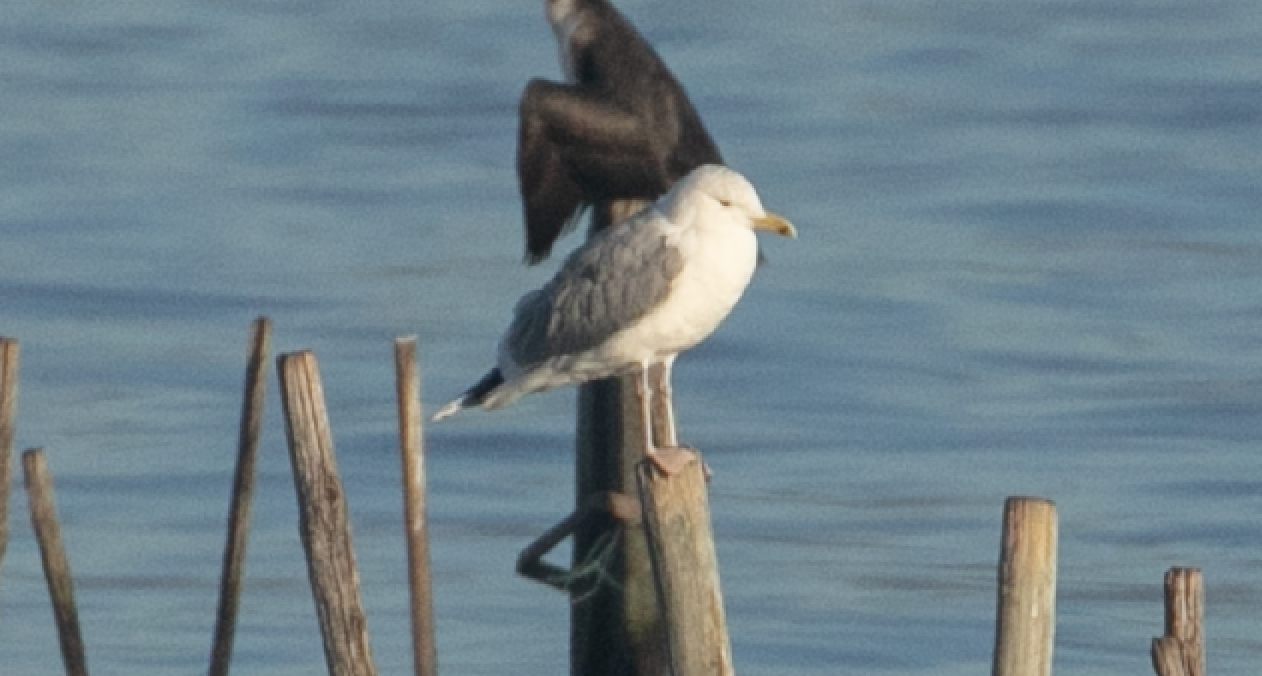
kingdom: Animalia
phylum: Chordata
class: Aves
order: Charadriiformes
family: Laridae
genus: Larus
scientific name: Larus cachinnans
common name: Caspian gull
